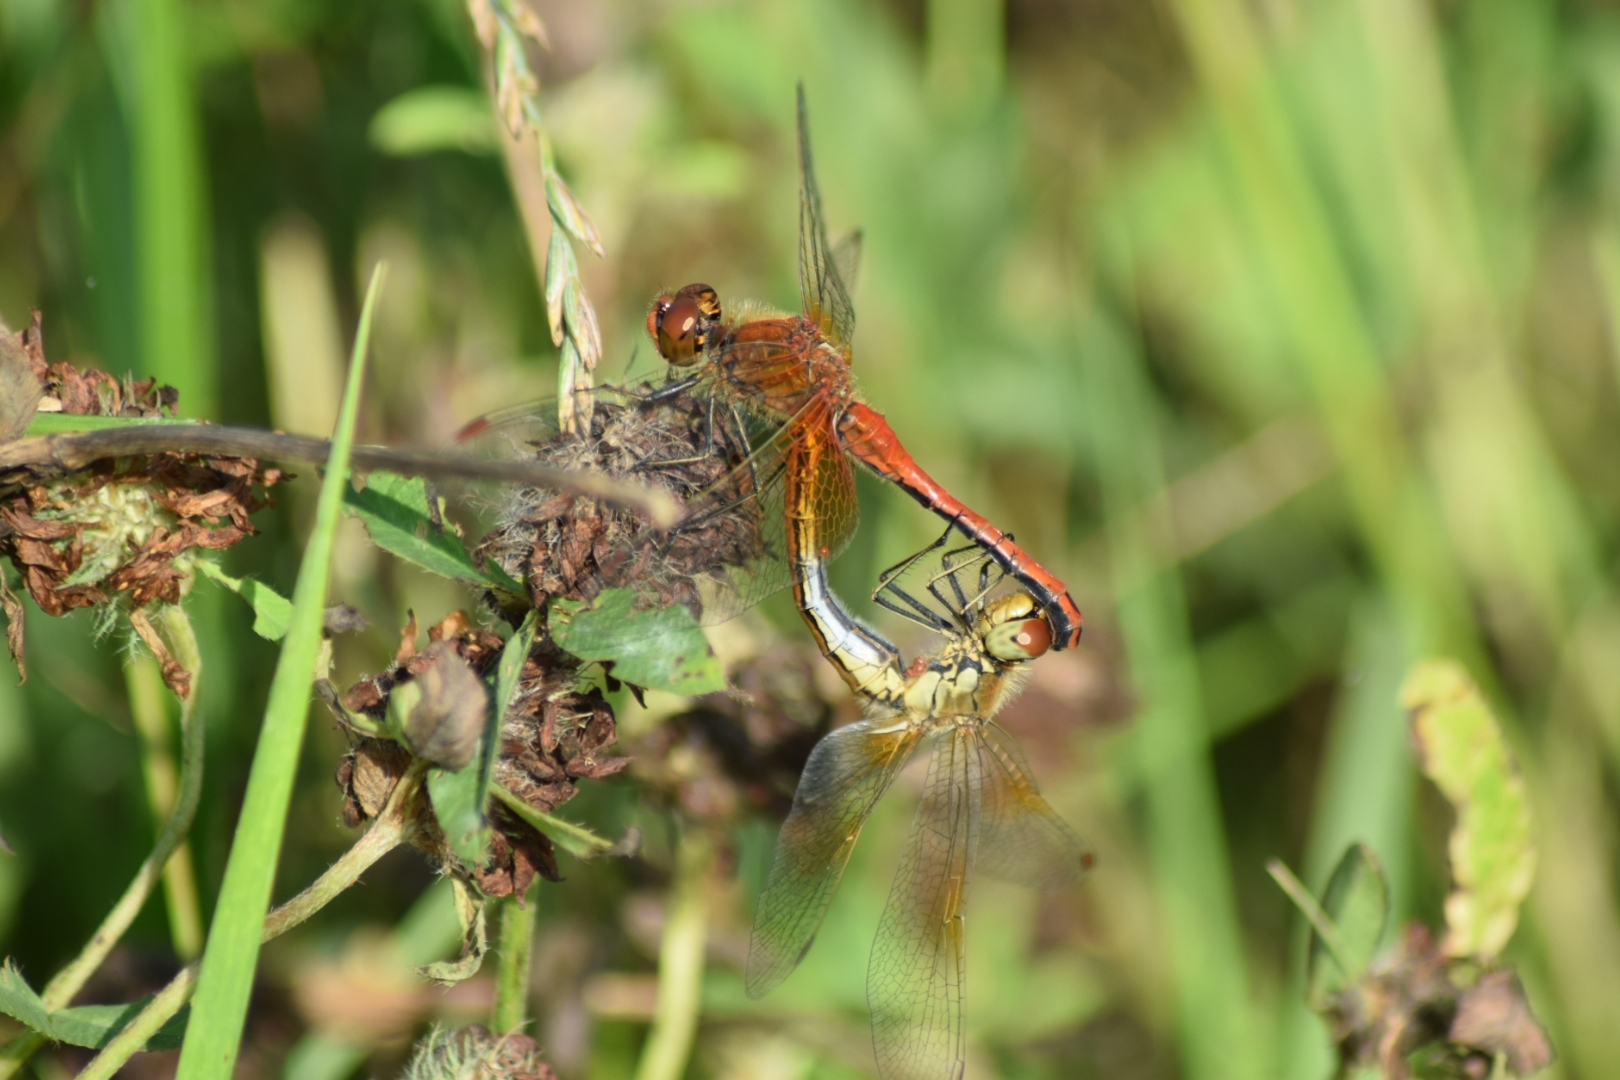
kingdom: Animalia
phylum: Arthropoda
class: Insecta
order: Odonata
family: Libellulidae
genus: Sympetrum
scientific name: Sympetrum flaveolum
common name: Yellow-winged darter
